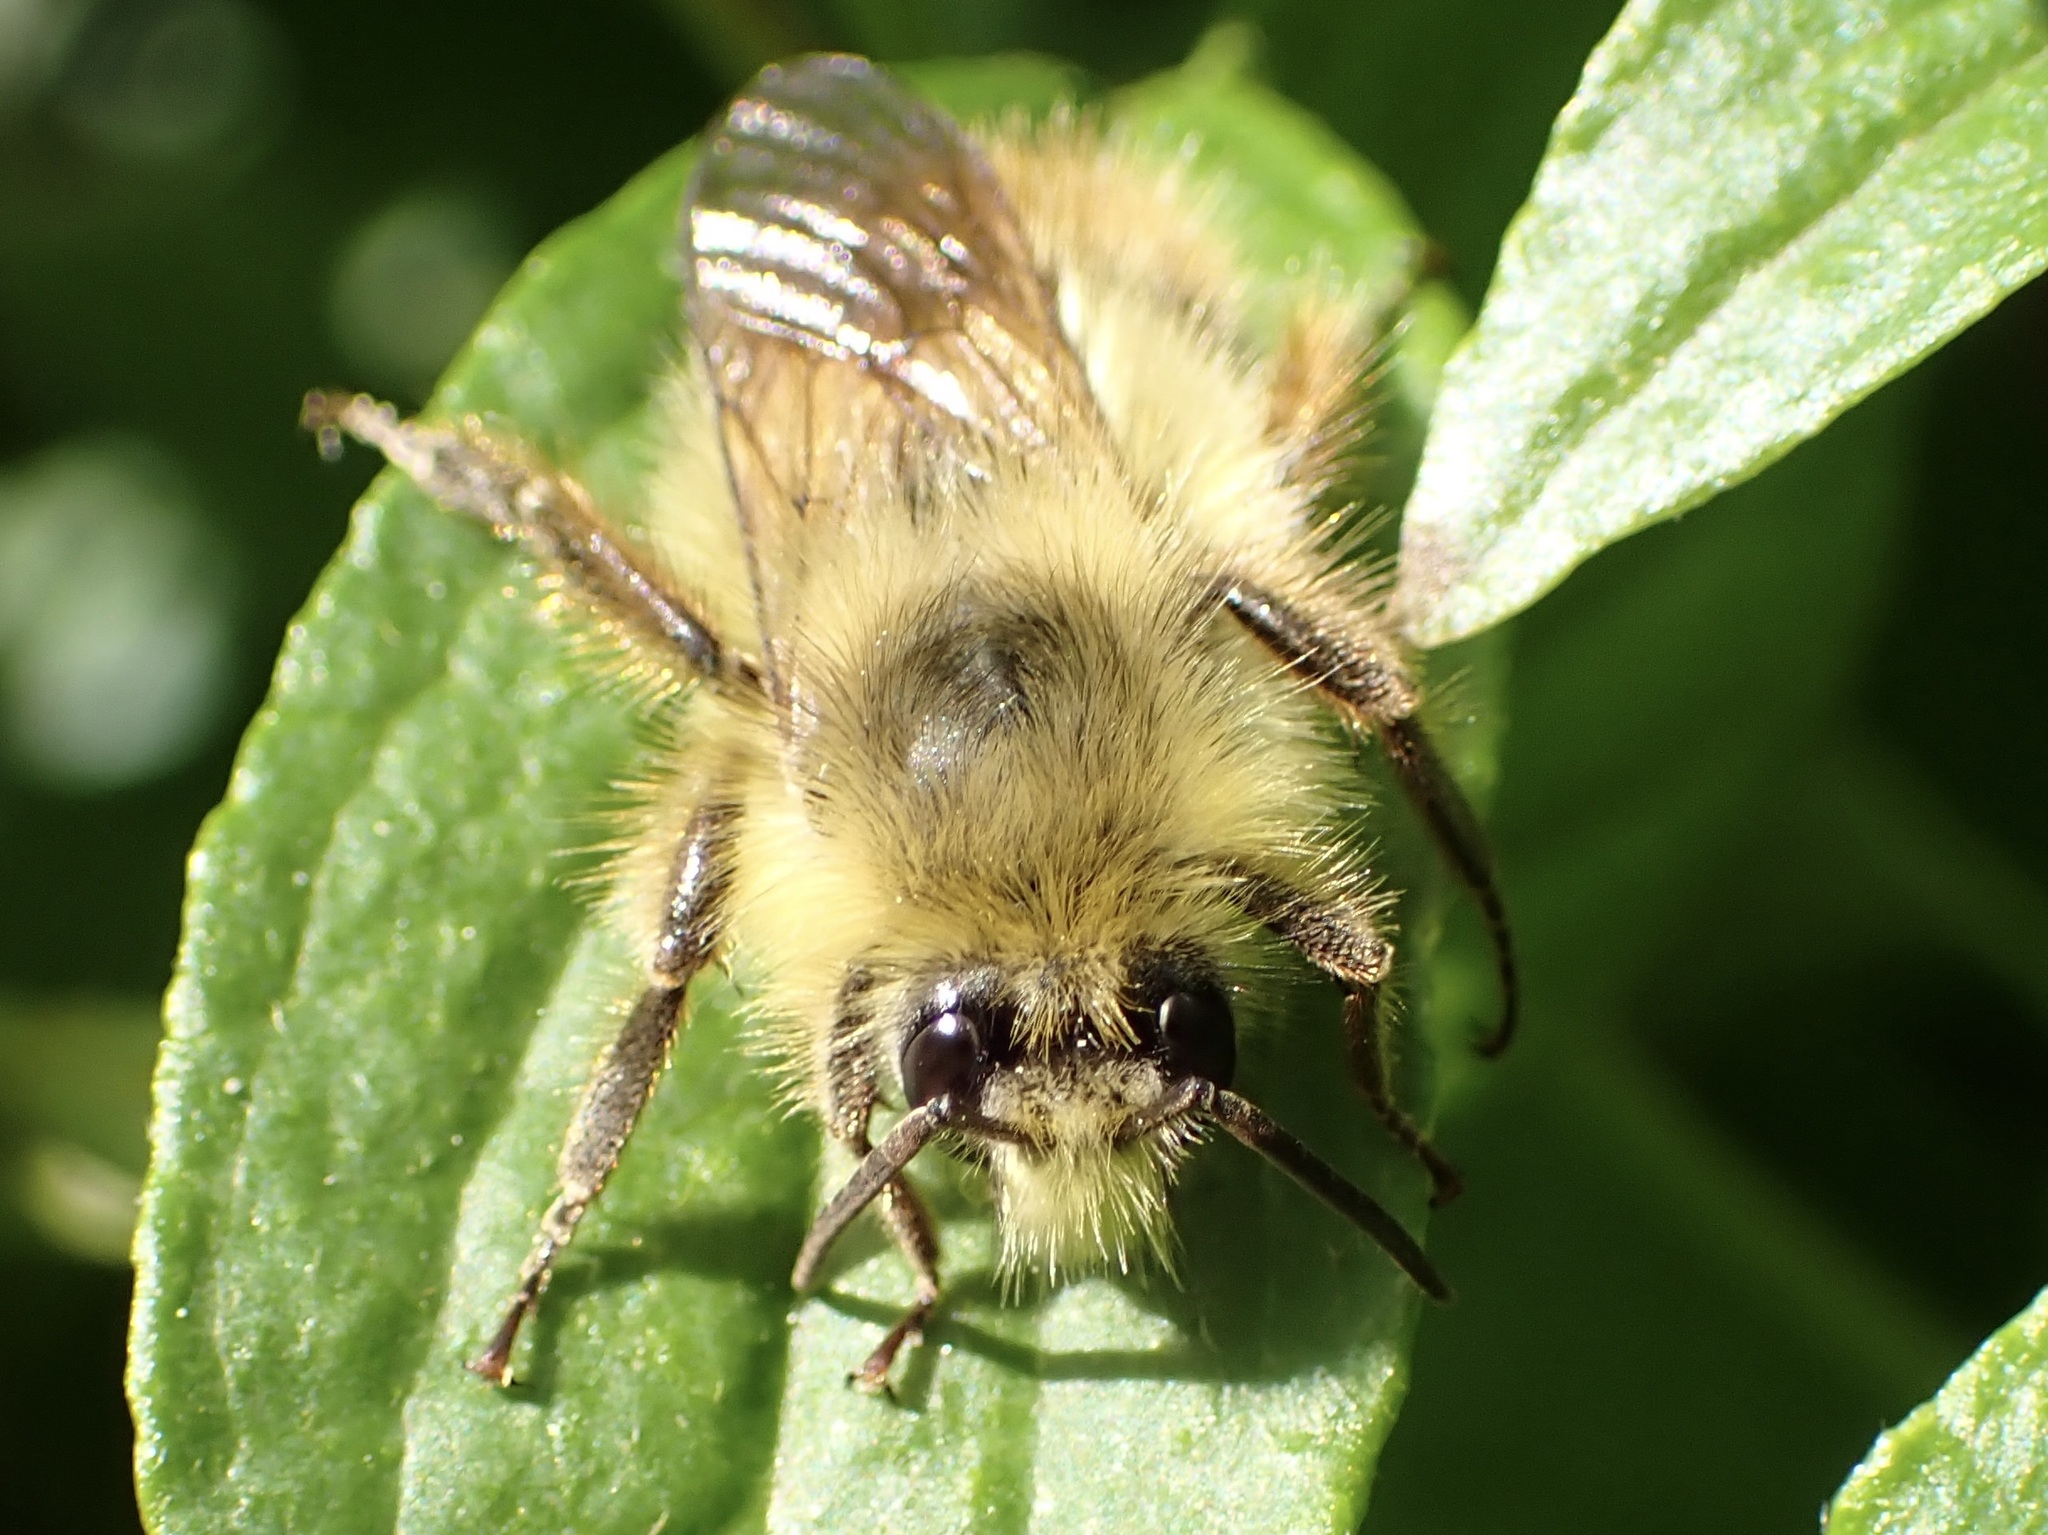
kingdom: Animalia
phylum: Arthropoda
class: Insecta
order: Hymenoptera
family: Apidae
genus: Bombus
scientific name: Bombus mixtus
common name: Fuzzy-horned bumble bee
